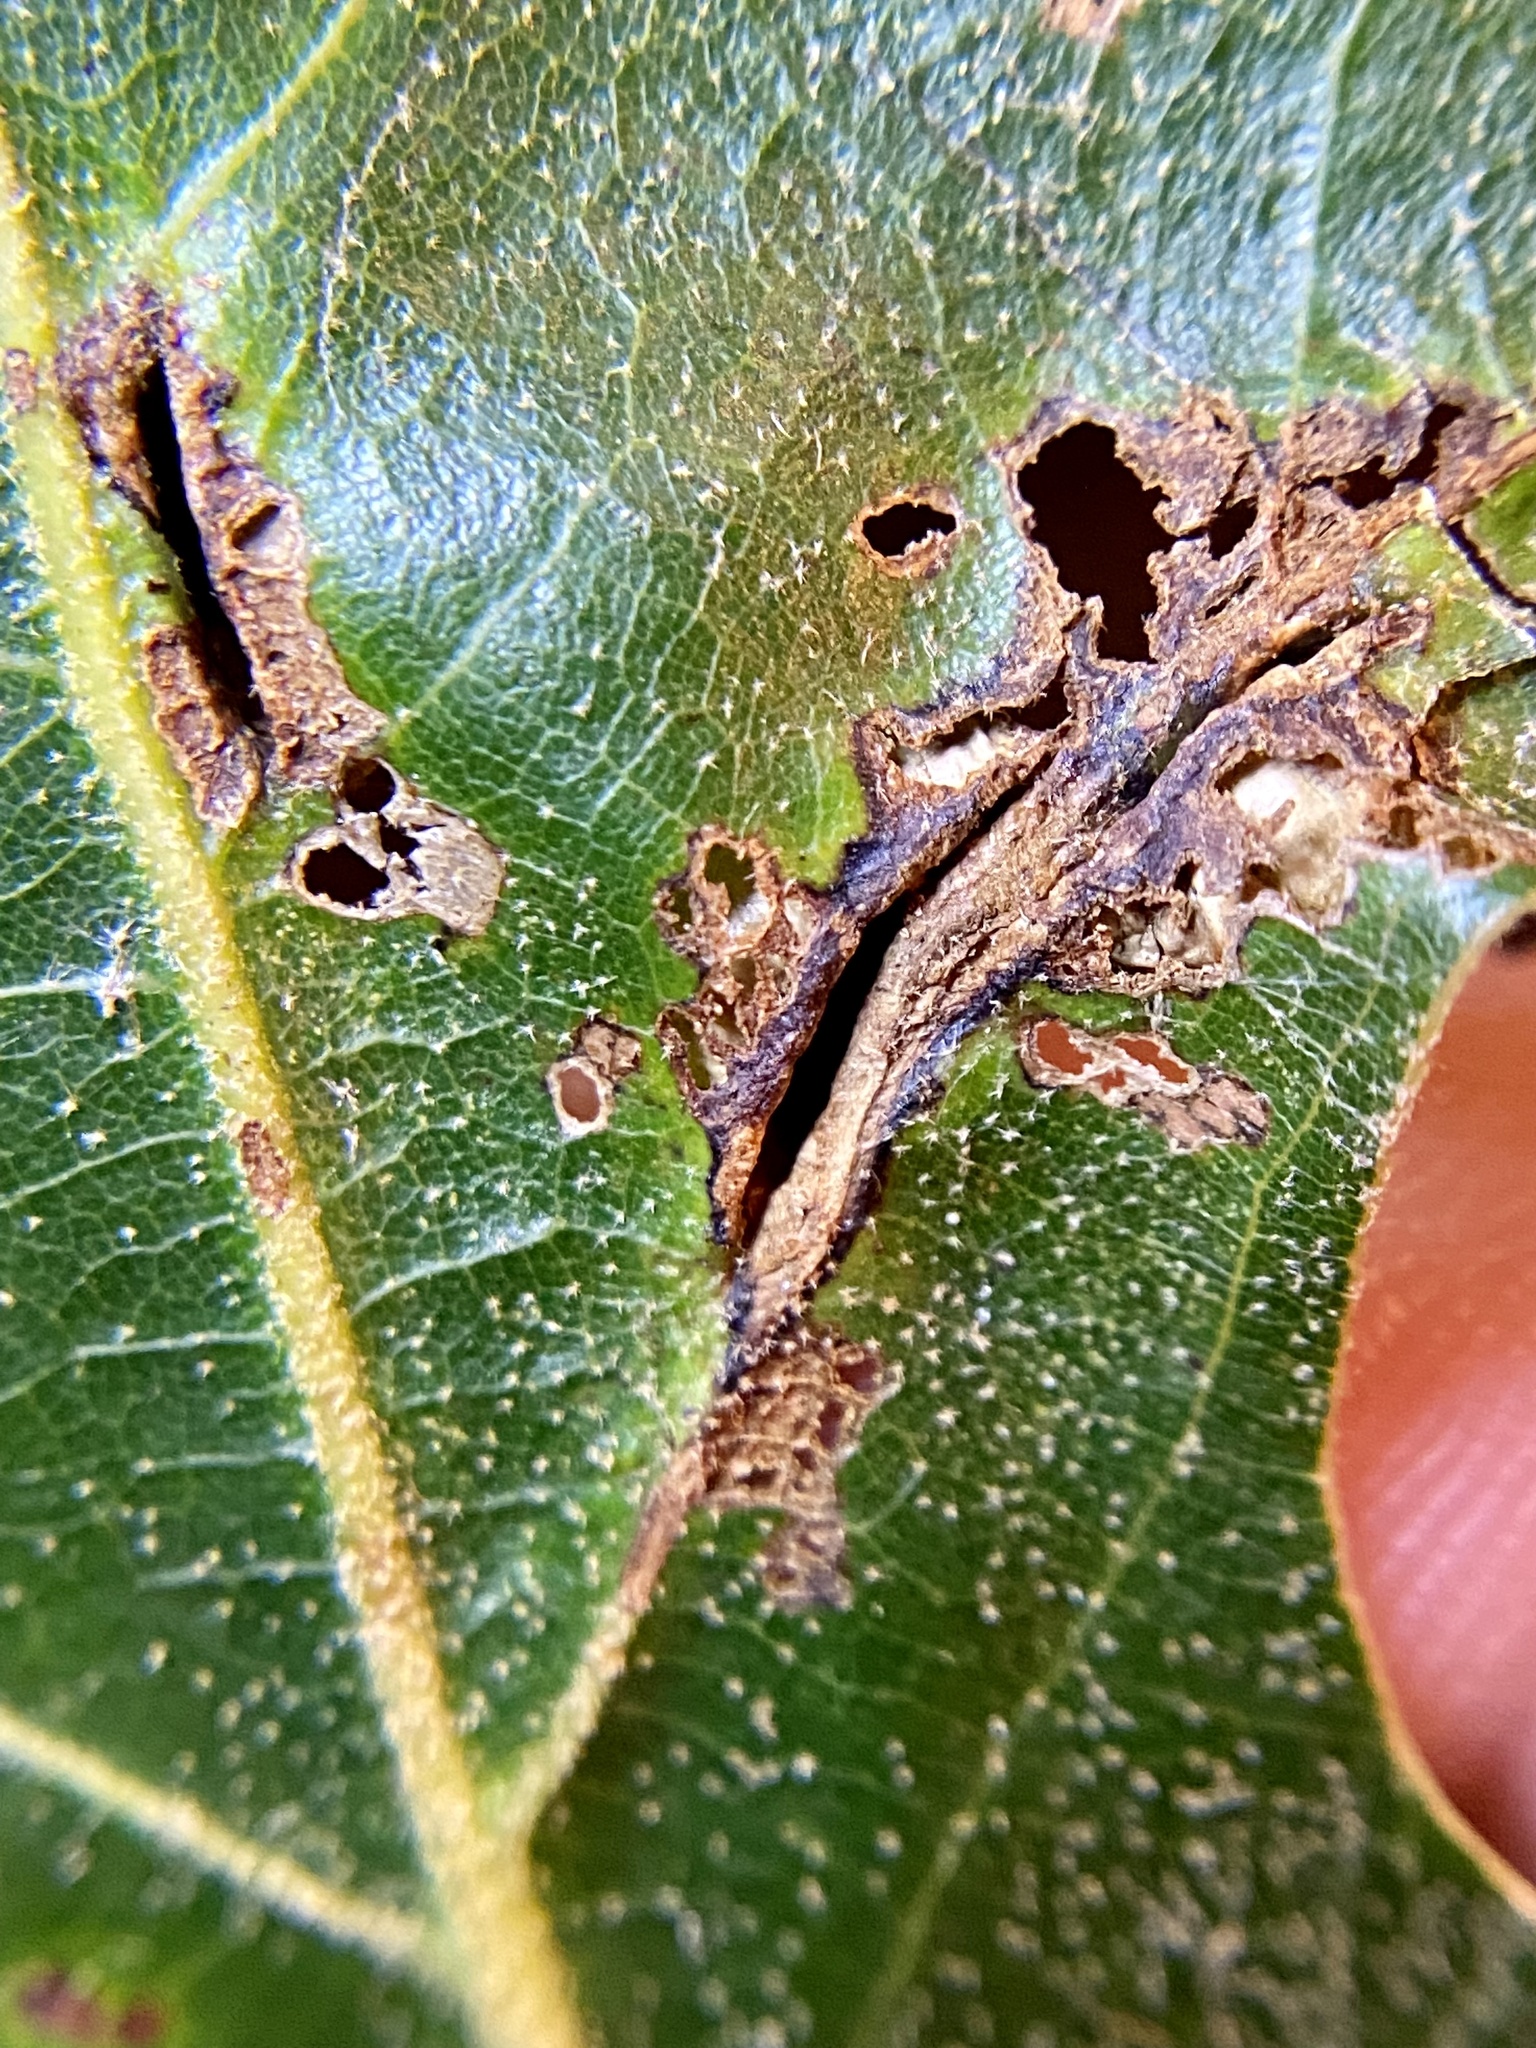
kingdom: Animalia
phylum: Arthropoda
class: Insecta
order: Diptera
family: Cecidomyiidae
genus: Macrodiplosis
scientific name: Macrodiplosis majalis
